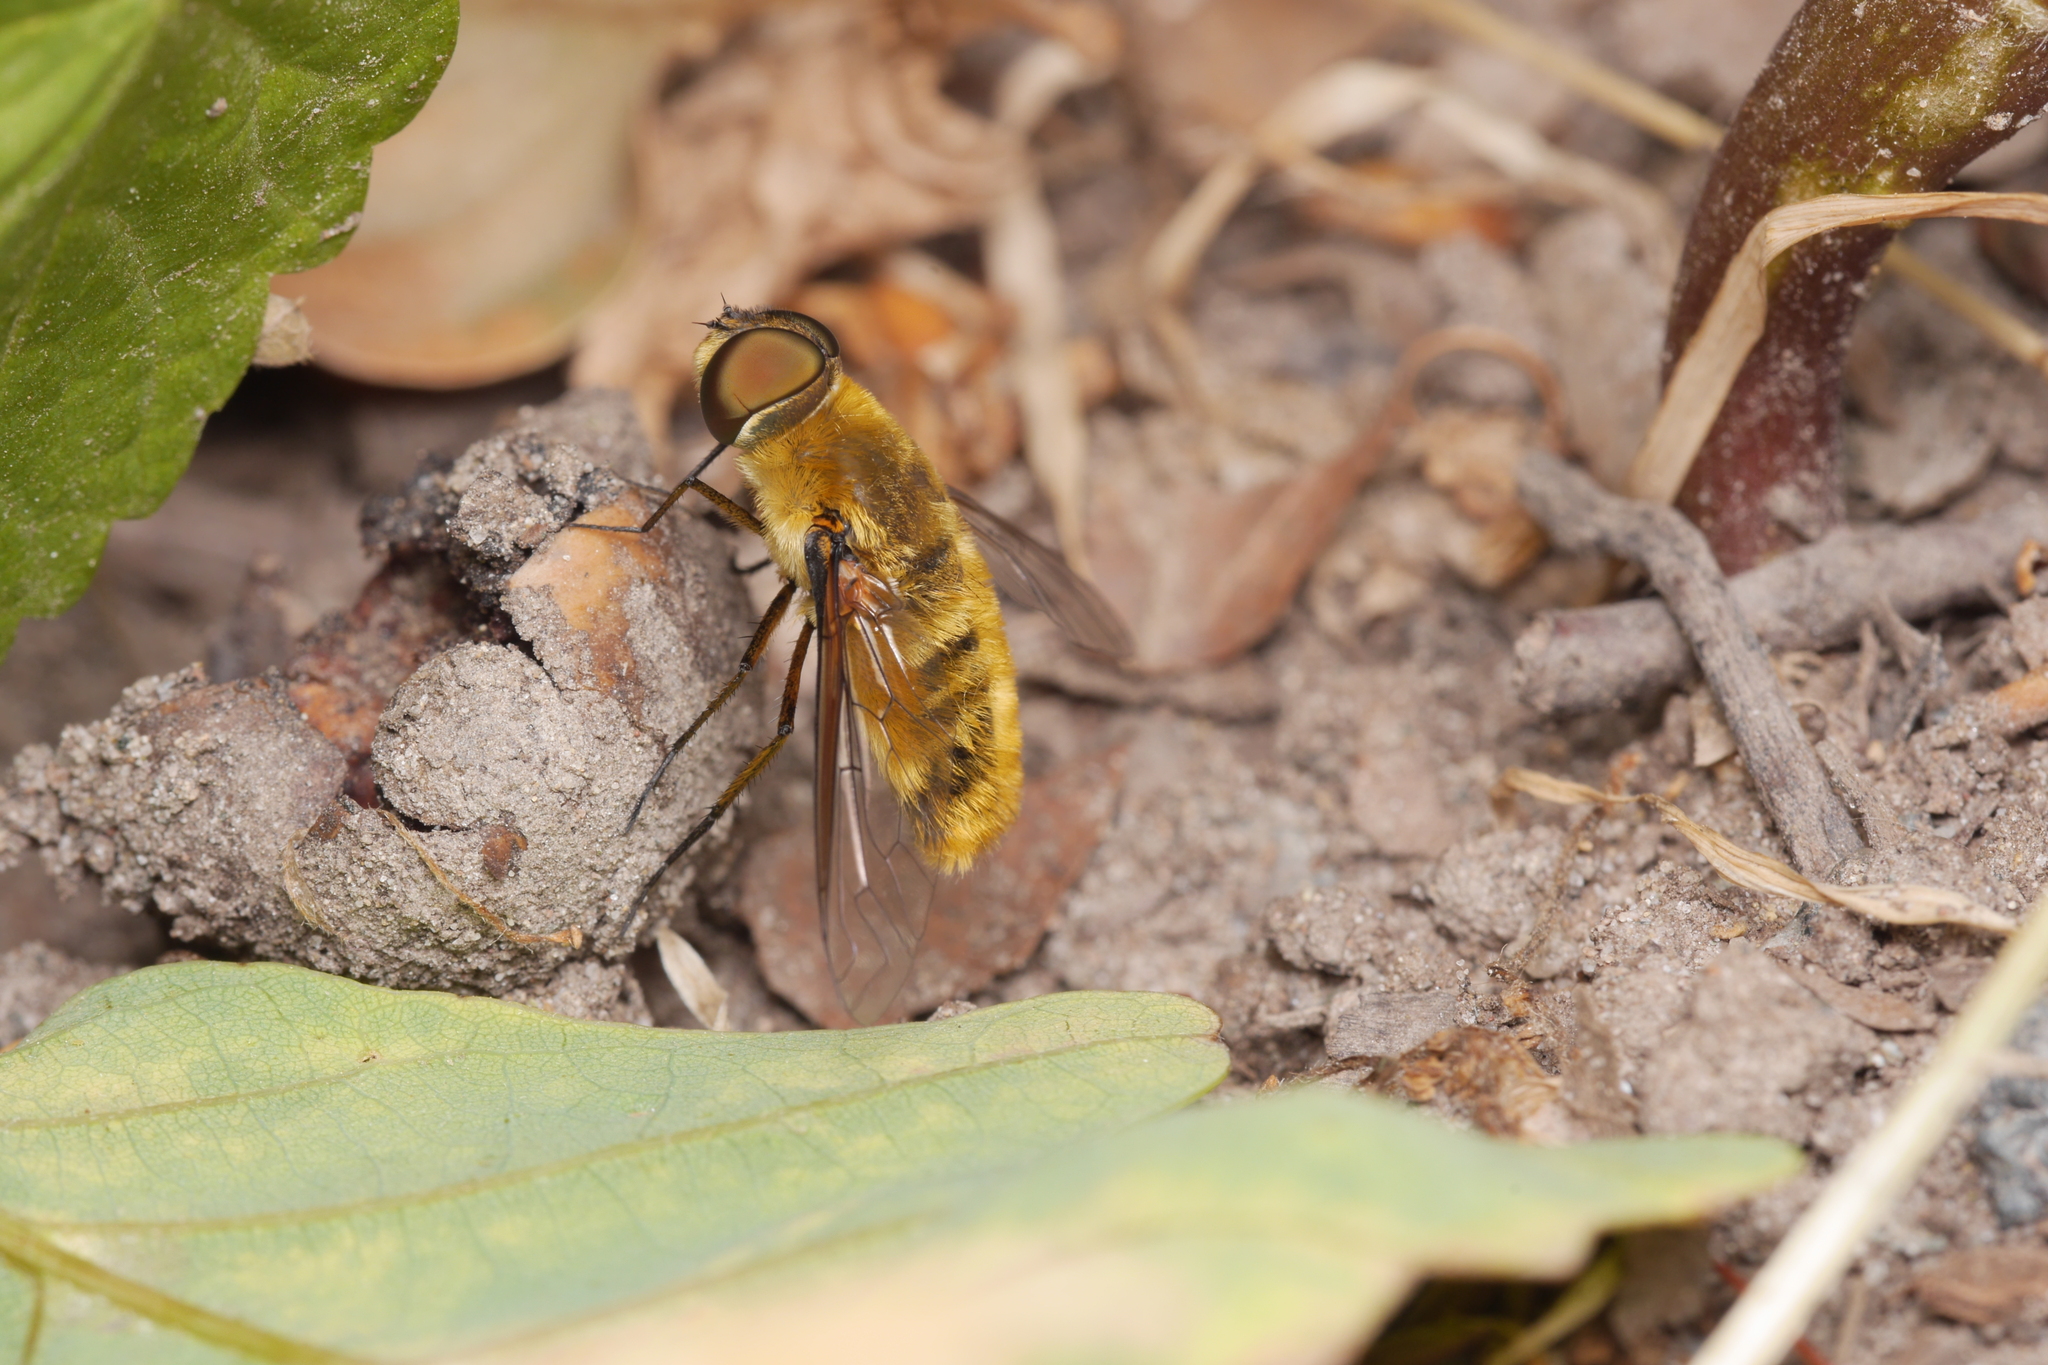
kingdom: Animalia
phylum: Arthropoda
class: Insecta
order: Diptera
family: Bombyliidae
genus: Villa
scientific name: Villa hottentotta
